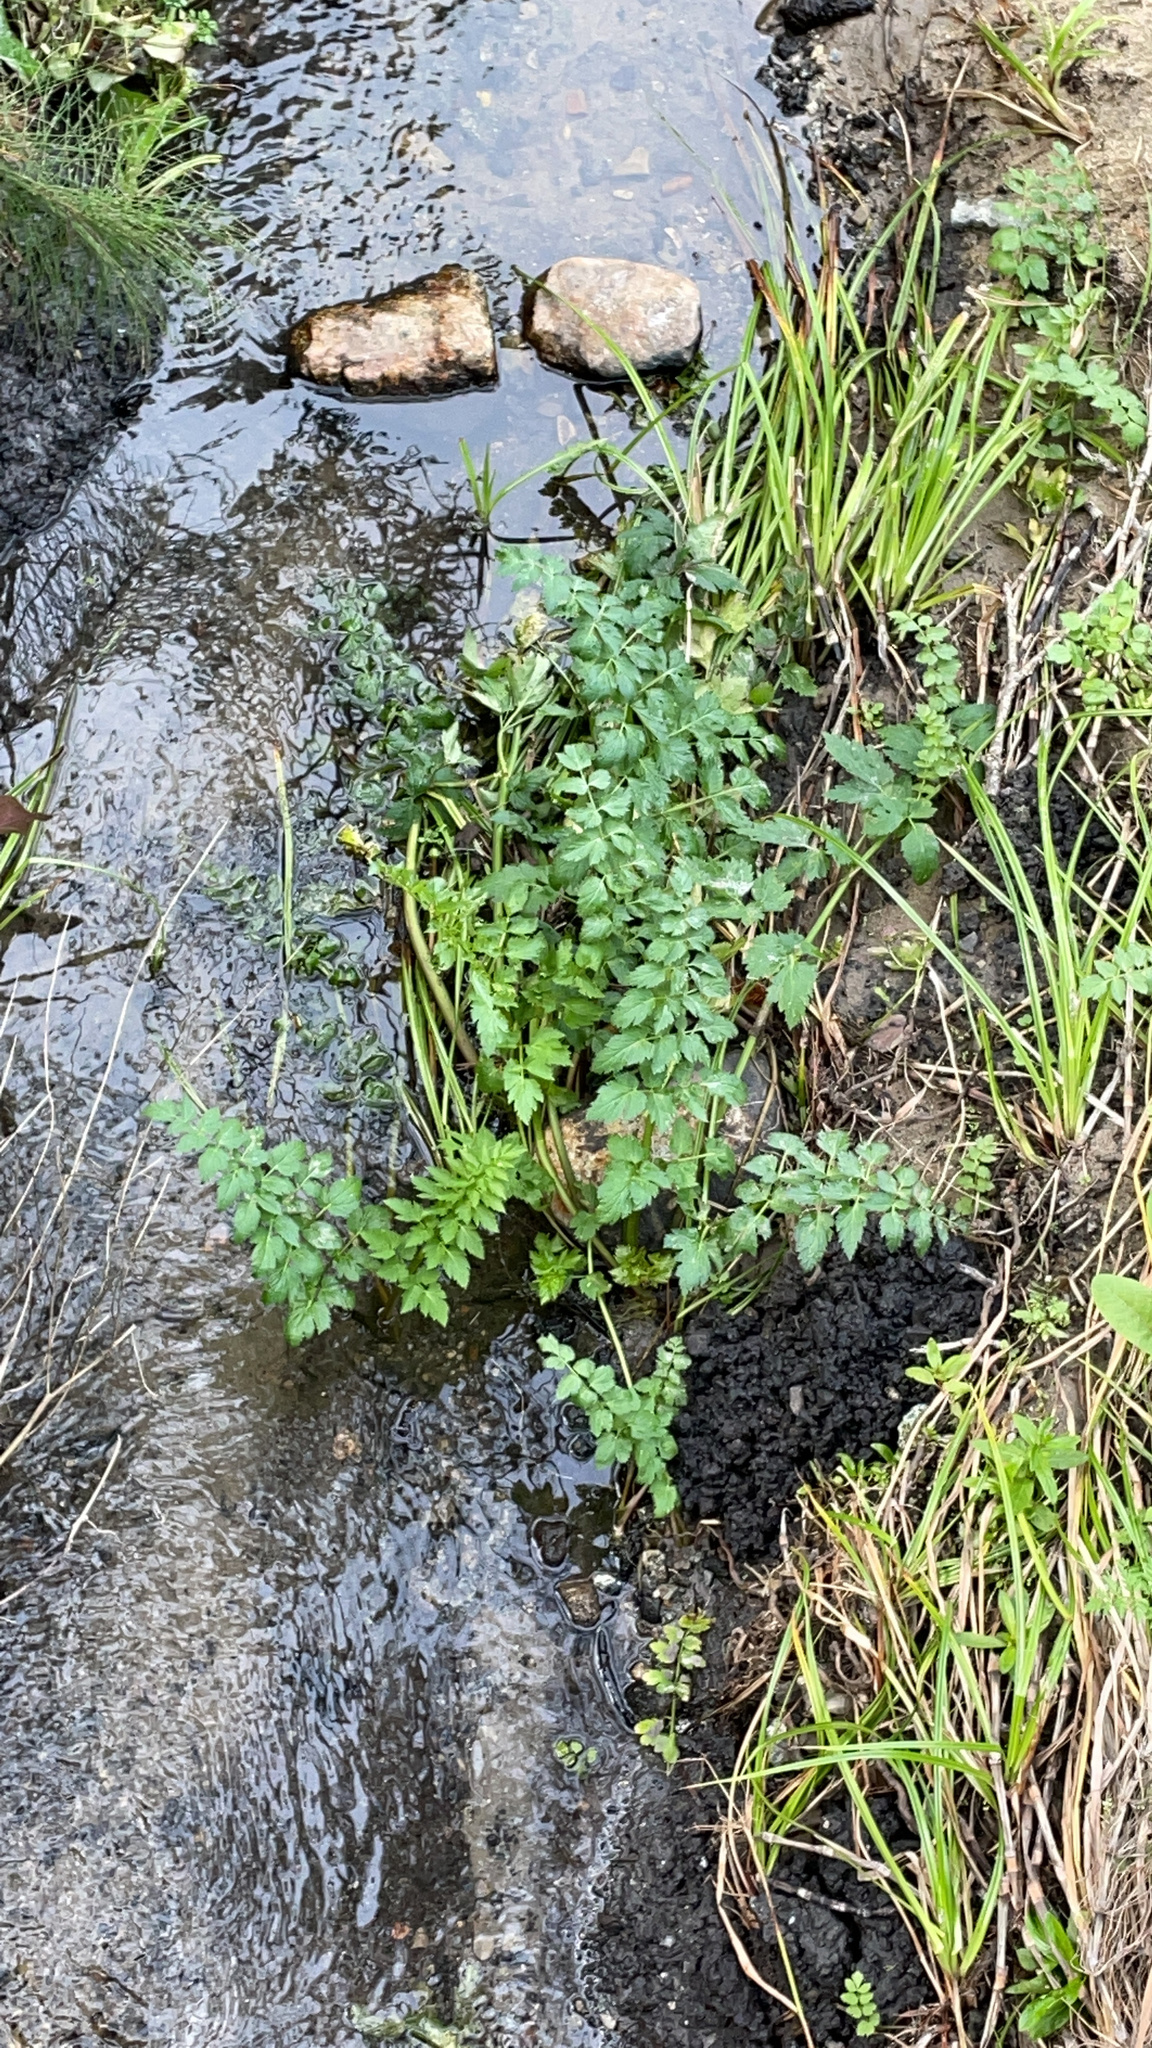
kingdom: Plantae
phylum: Tracheophyta
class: Magnoliopsida
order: Apiales
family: Apiaceae
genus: Oenanthe
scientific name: Oenanthe sarmentosa
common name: American water-parsley
